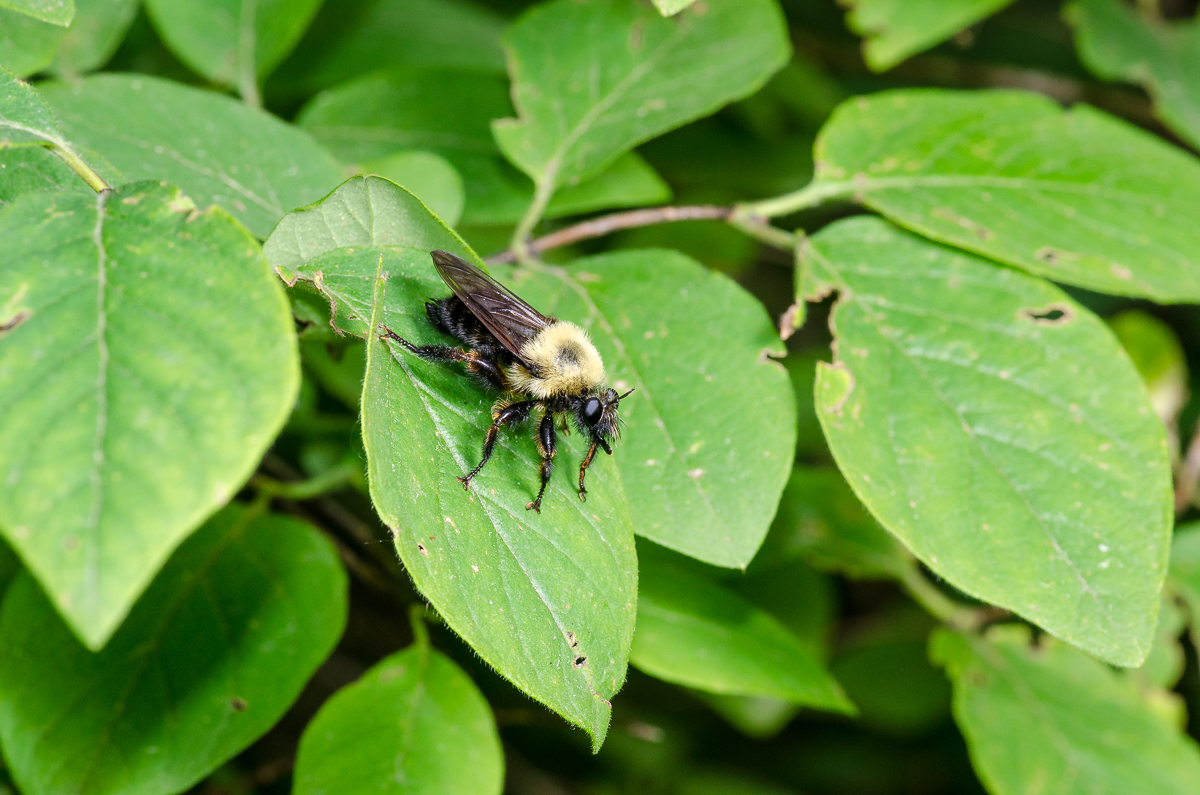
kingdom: Animalia
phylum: Arthropoda
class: Insecta
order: Diptera
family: Asilidae
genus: Laphria
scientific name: Laphria thoracica
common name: Bumble bee mimic robber fly
